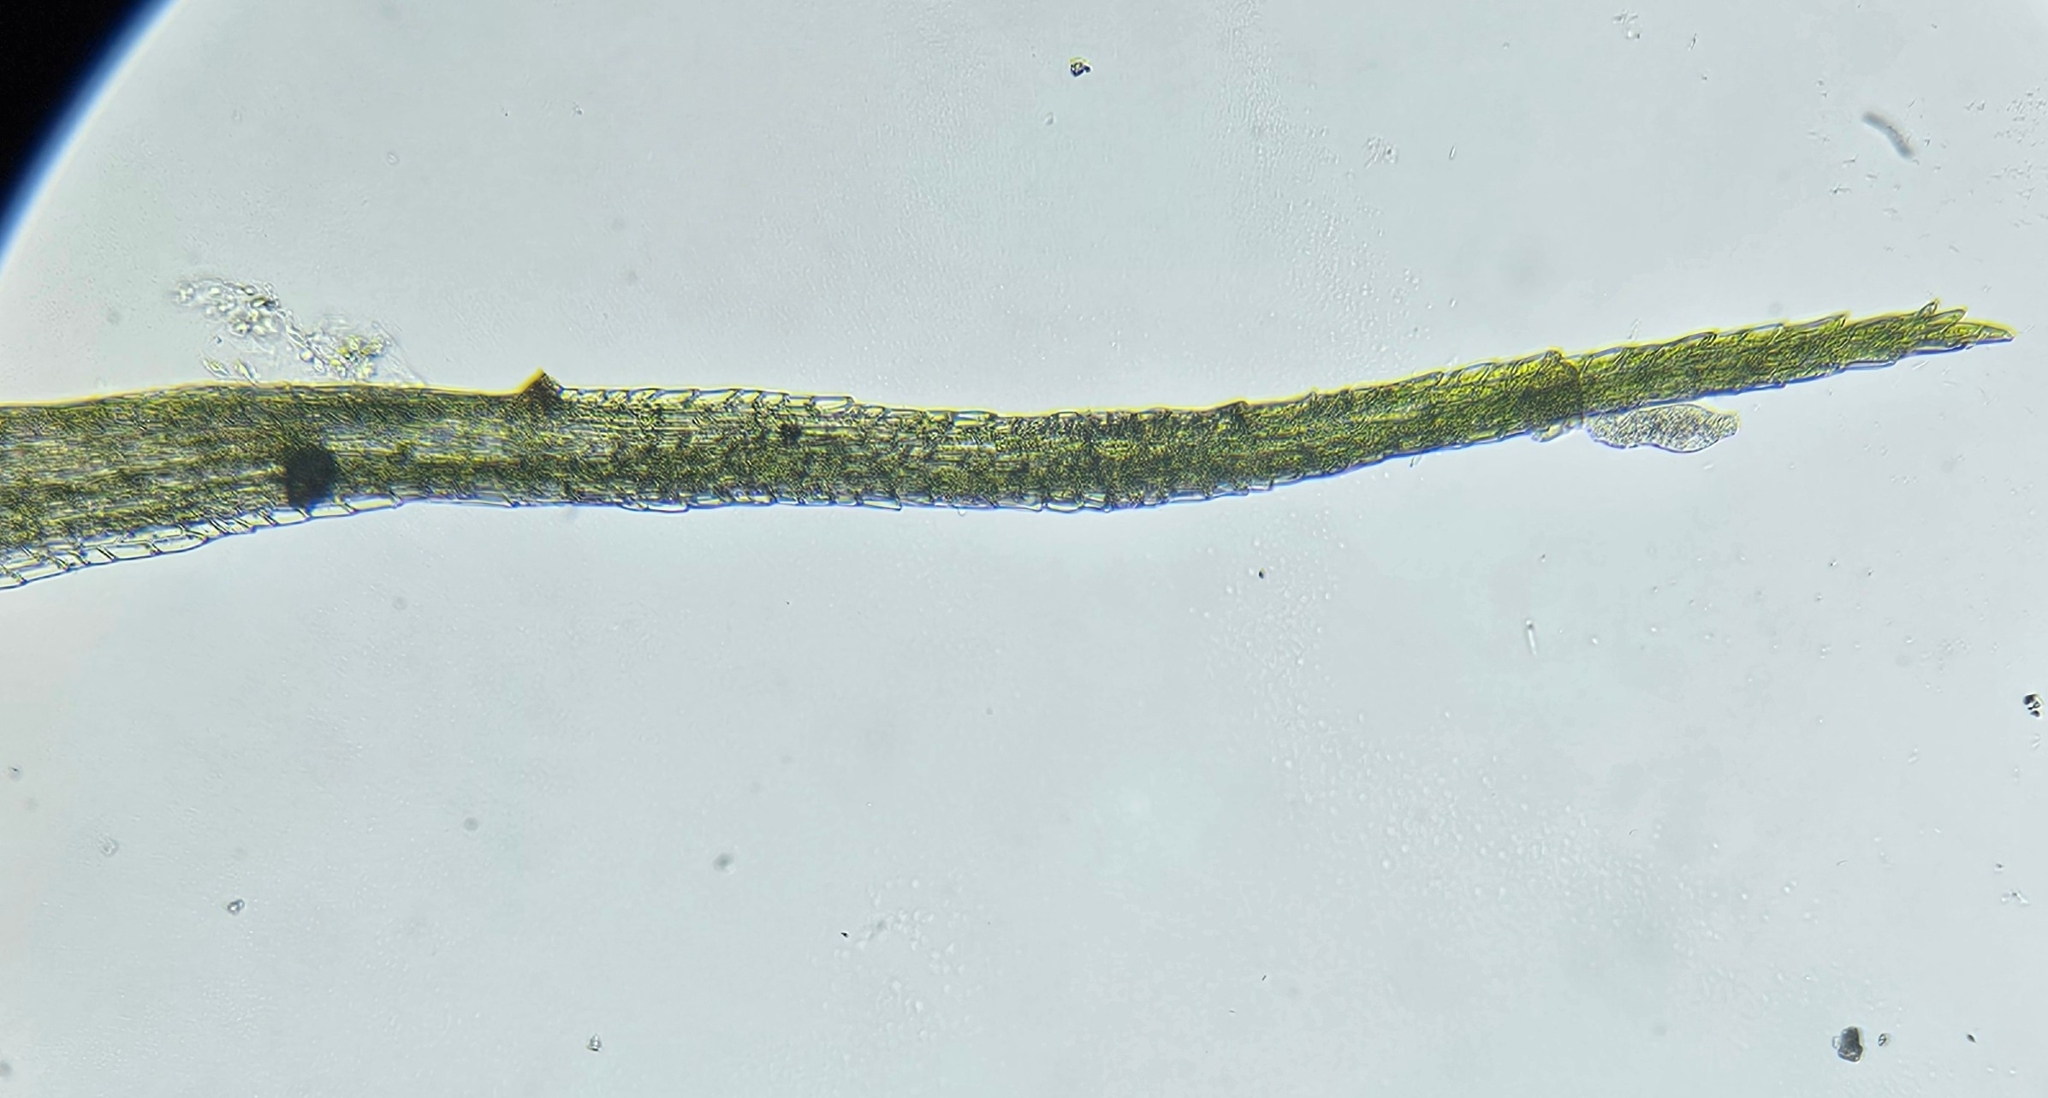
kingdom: Plantae
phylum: Bryophyta
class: Bryopsida
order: Dicranales
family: Leucobryaceae
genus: Campylopus
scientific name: Campylopus pyriformis
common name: Dwarf swan-neck moss
